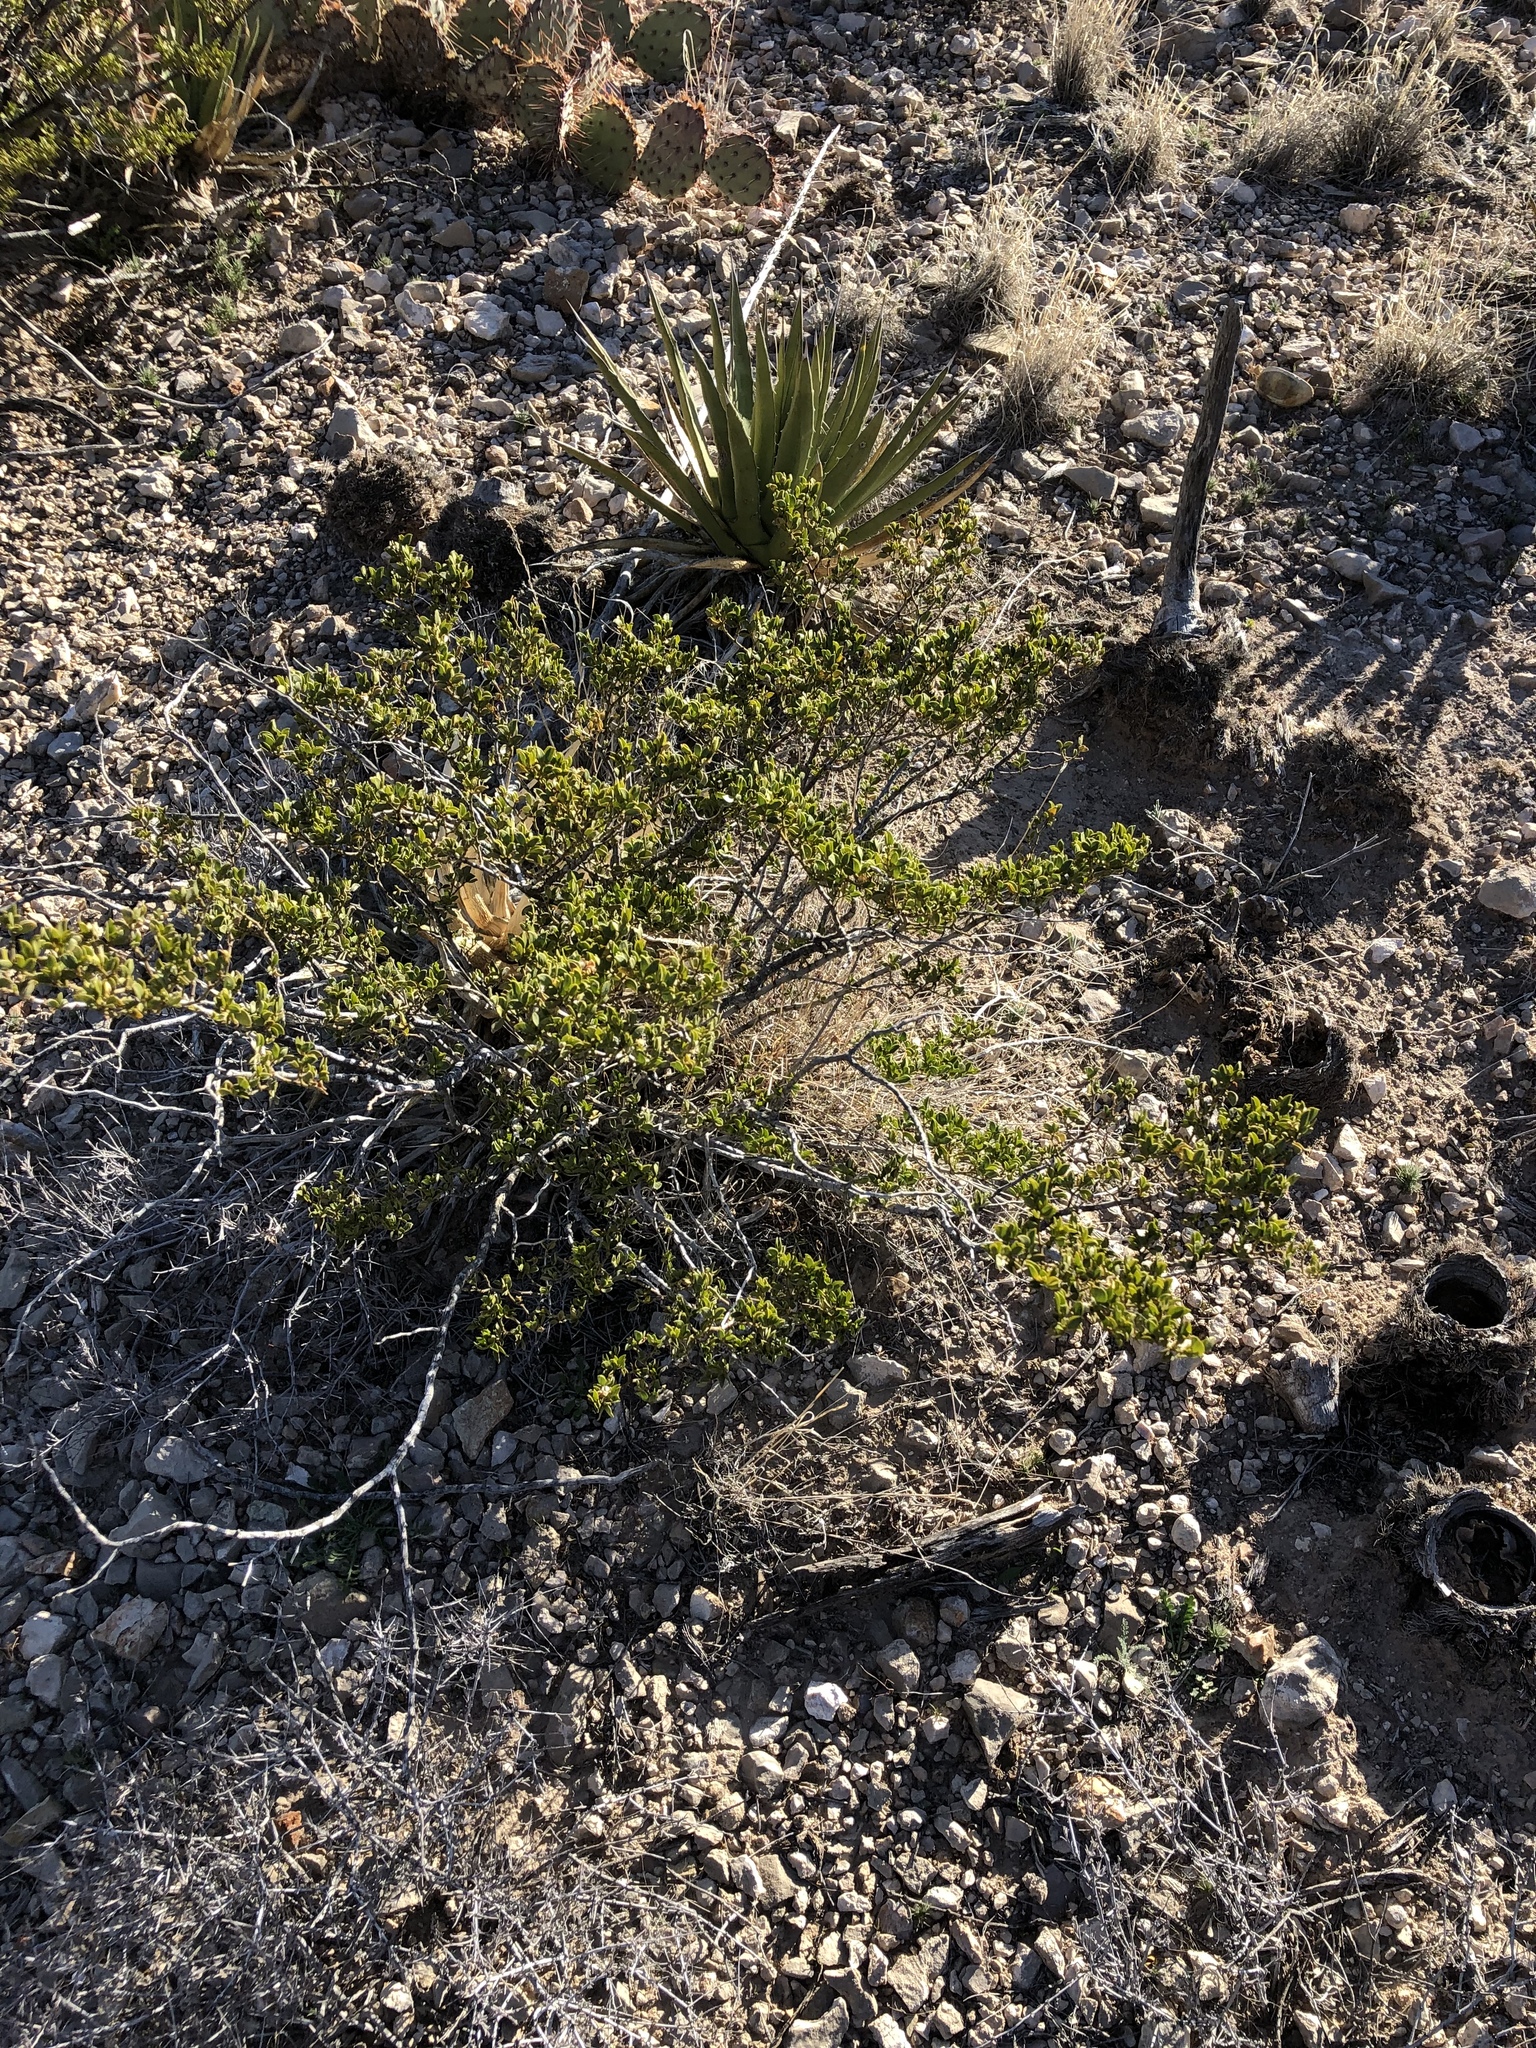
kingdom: Plantae
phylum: Tracheophyta
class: Magnoliopsida
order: Zygophyllales
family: Zygophyllaceae
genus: Larrea
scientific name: Larrea tridentata
